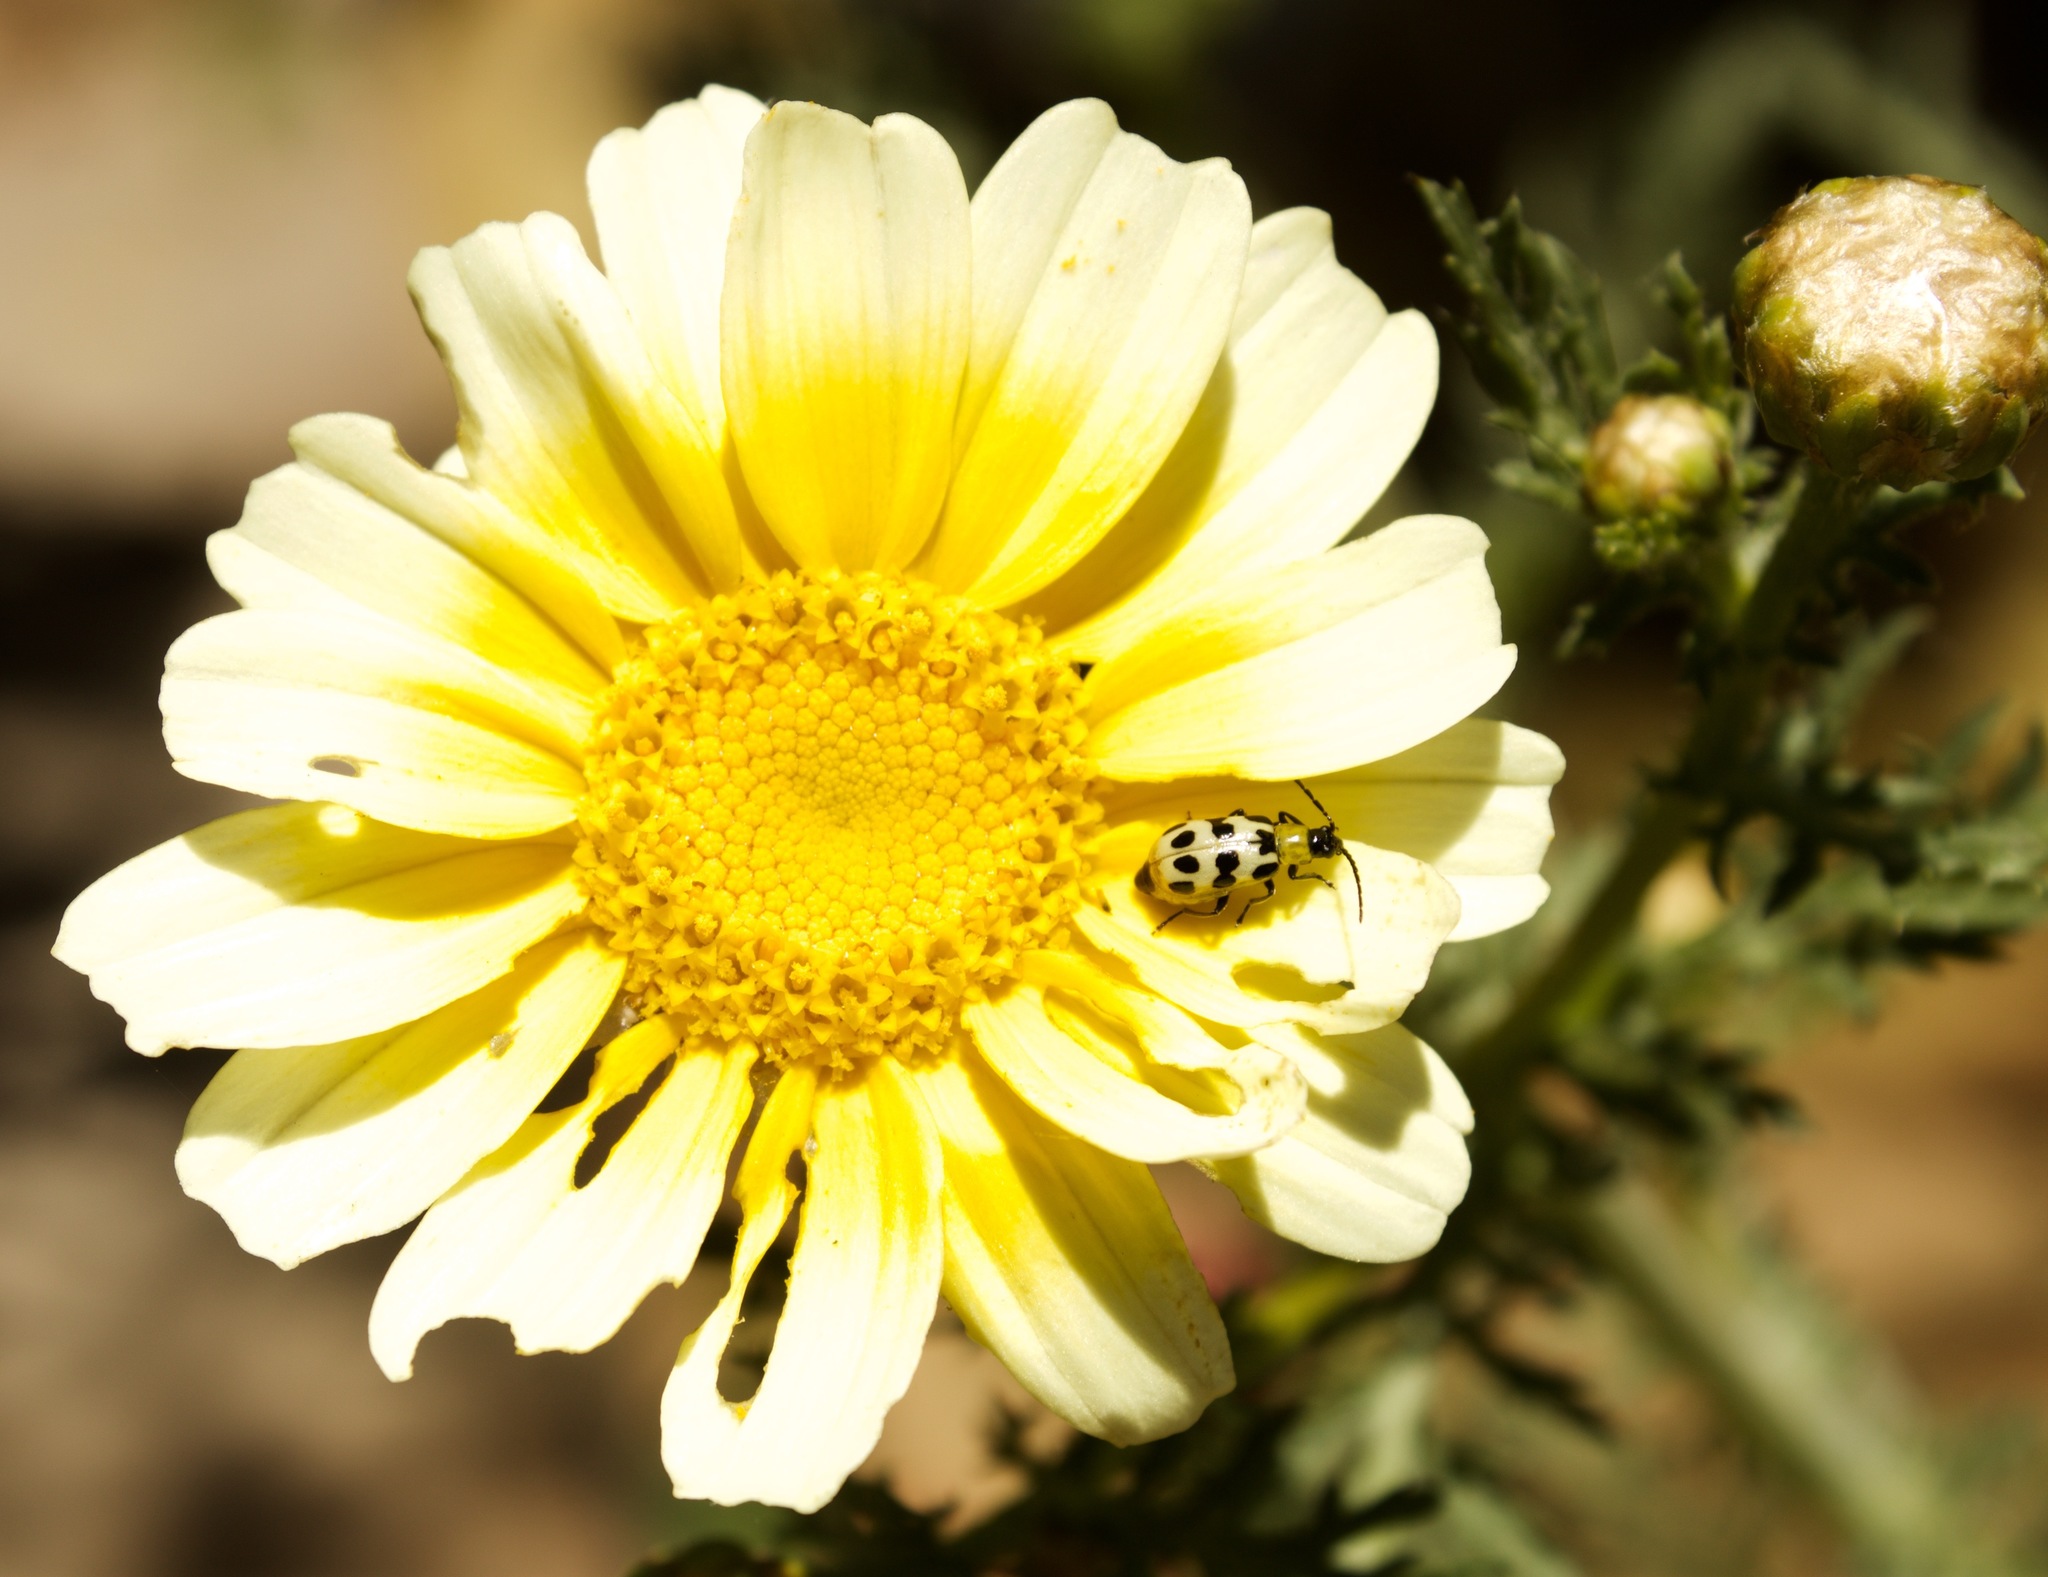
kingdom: Animalia
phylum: Arthropoda
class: Insecta
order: Coleoptera
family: Chrysomelidae
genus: Diabrotica
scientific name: Diabrotica undecimpunctata
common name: Spotted cucumber beetle
